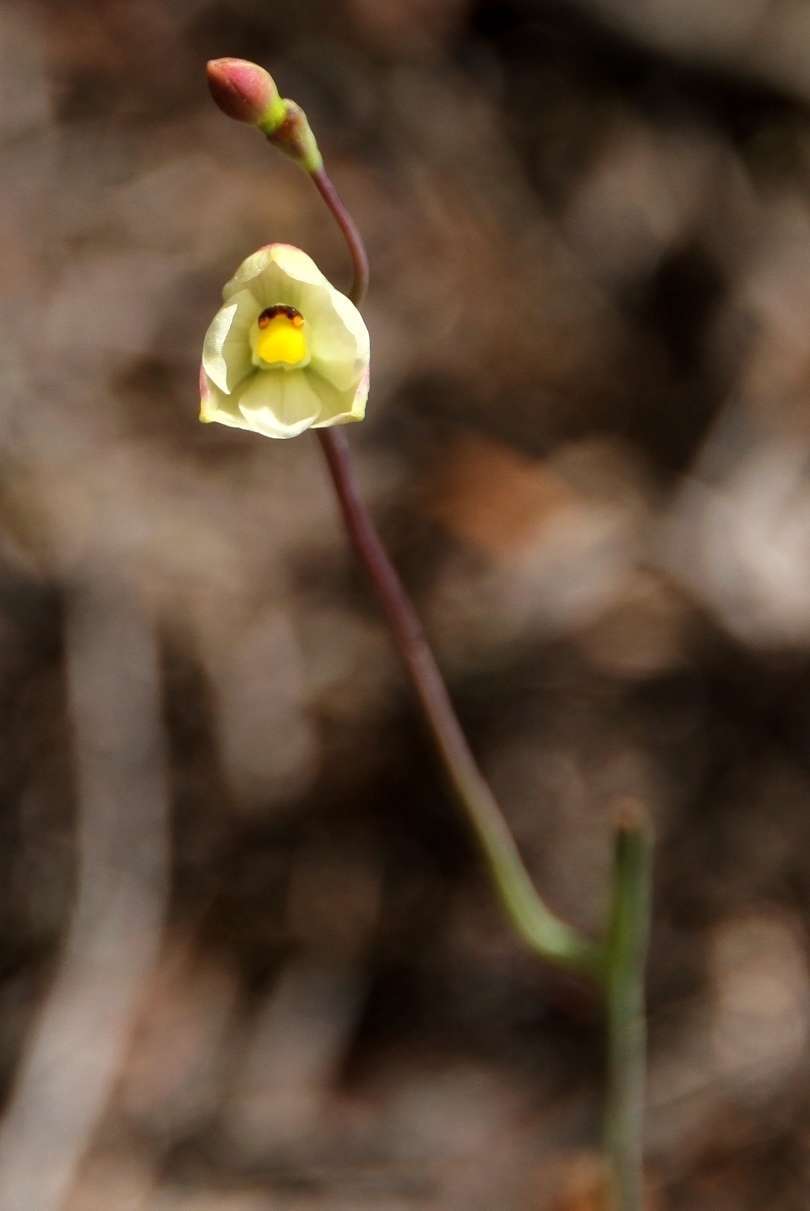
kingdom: Plantae
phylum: Tracheophyta
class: Liliopsida
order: Asparagales
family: Orchidaceae
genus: Thelymitra
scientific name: Thelymitra flexuosa
